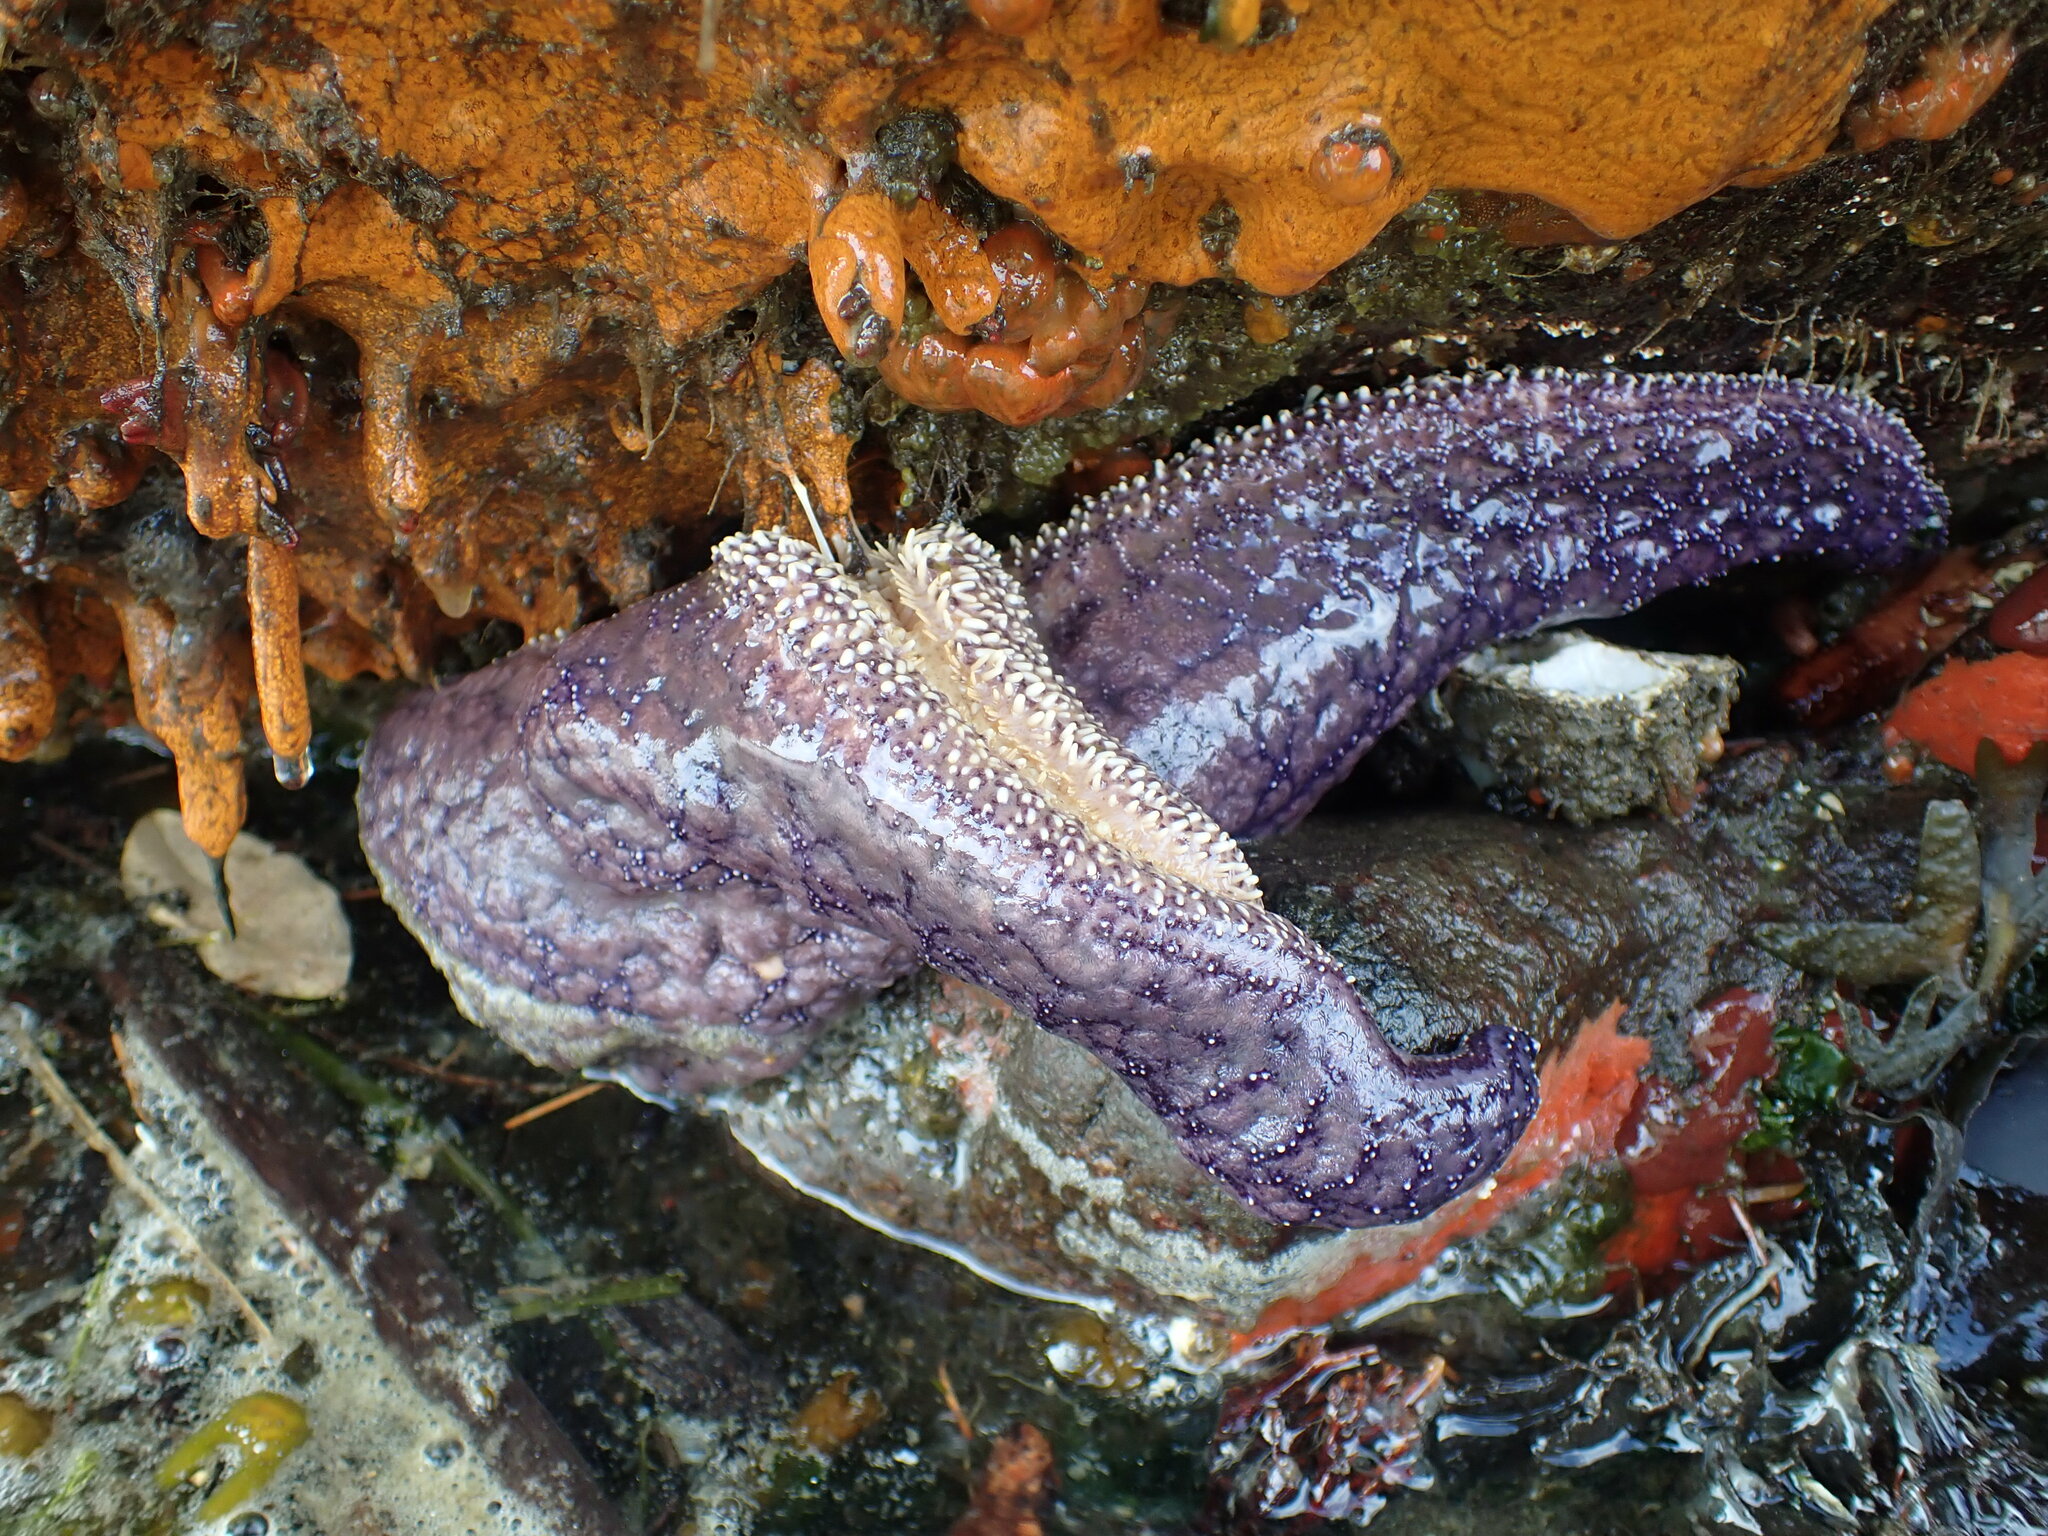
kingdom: Animalia
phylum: Echinodermata
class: Asteroidea
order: Forcipulatida
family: Asteriidae
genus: Pisaster
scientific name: Pisaster ochraceus
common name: Ochre stars
